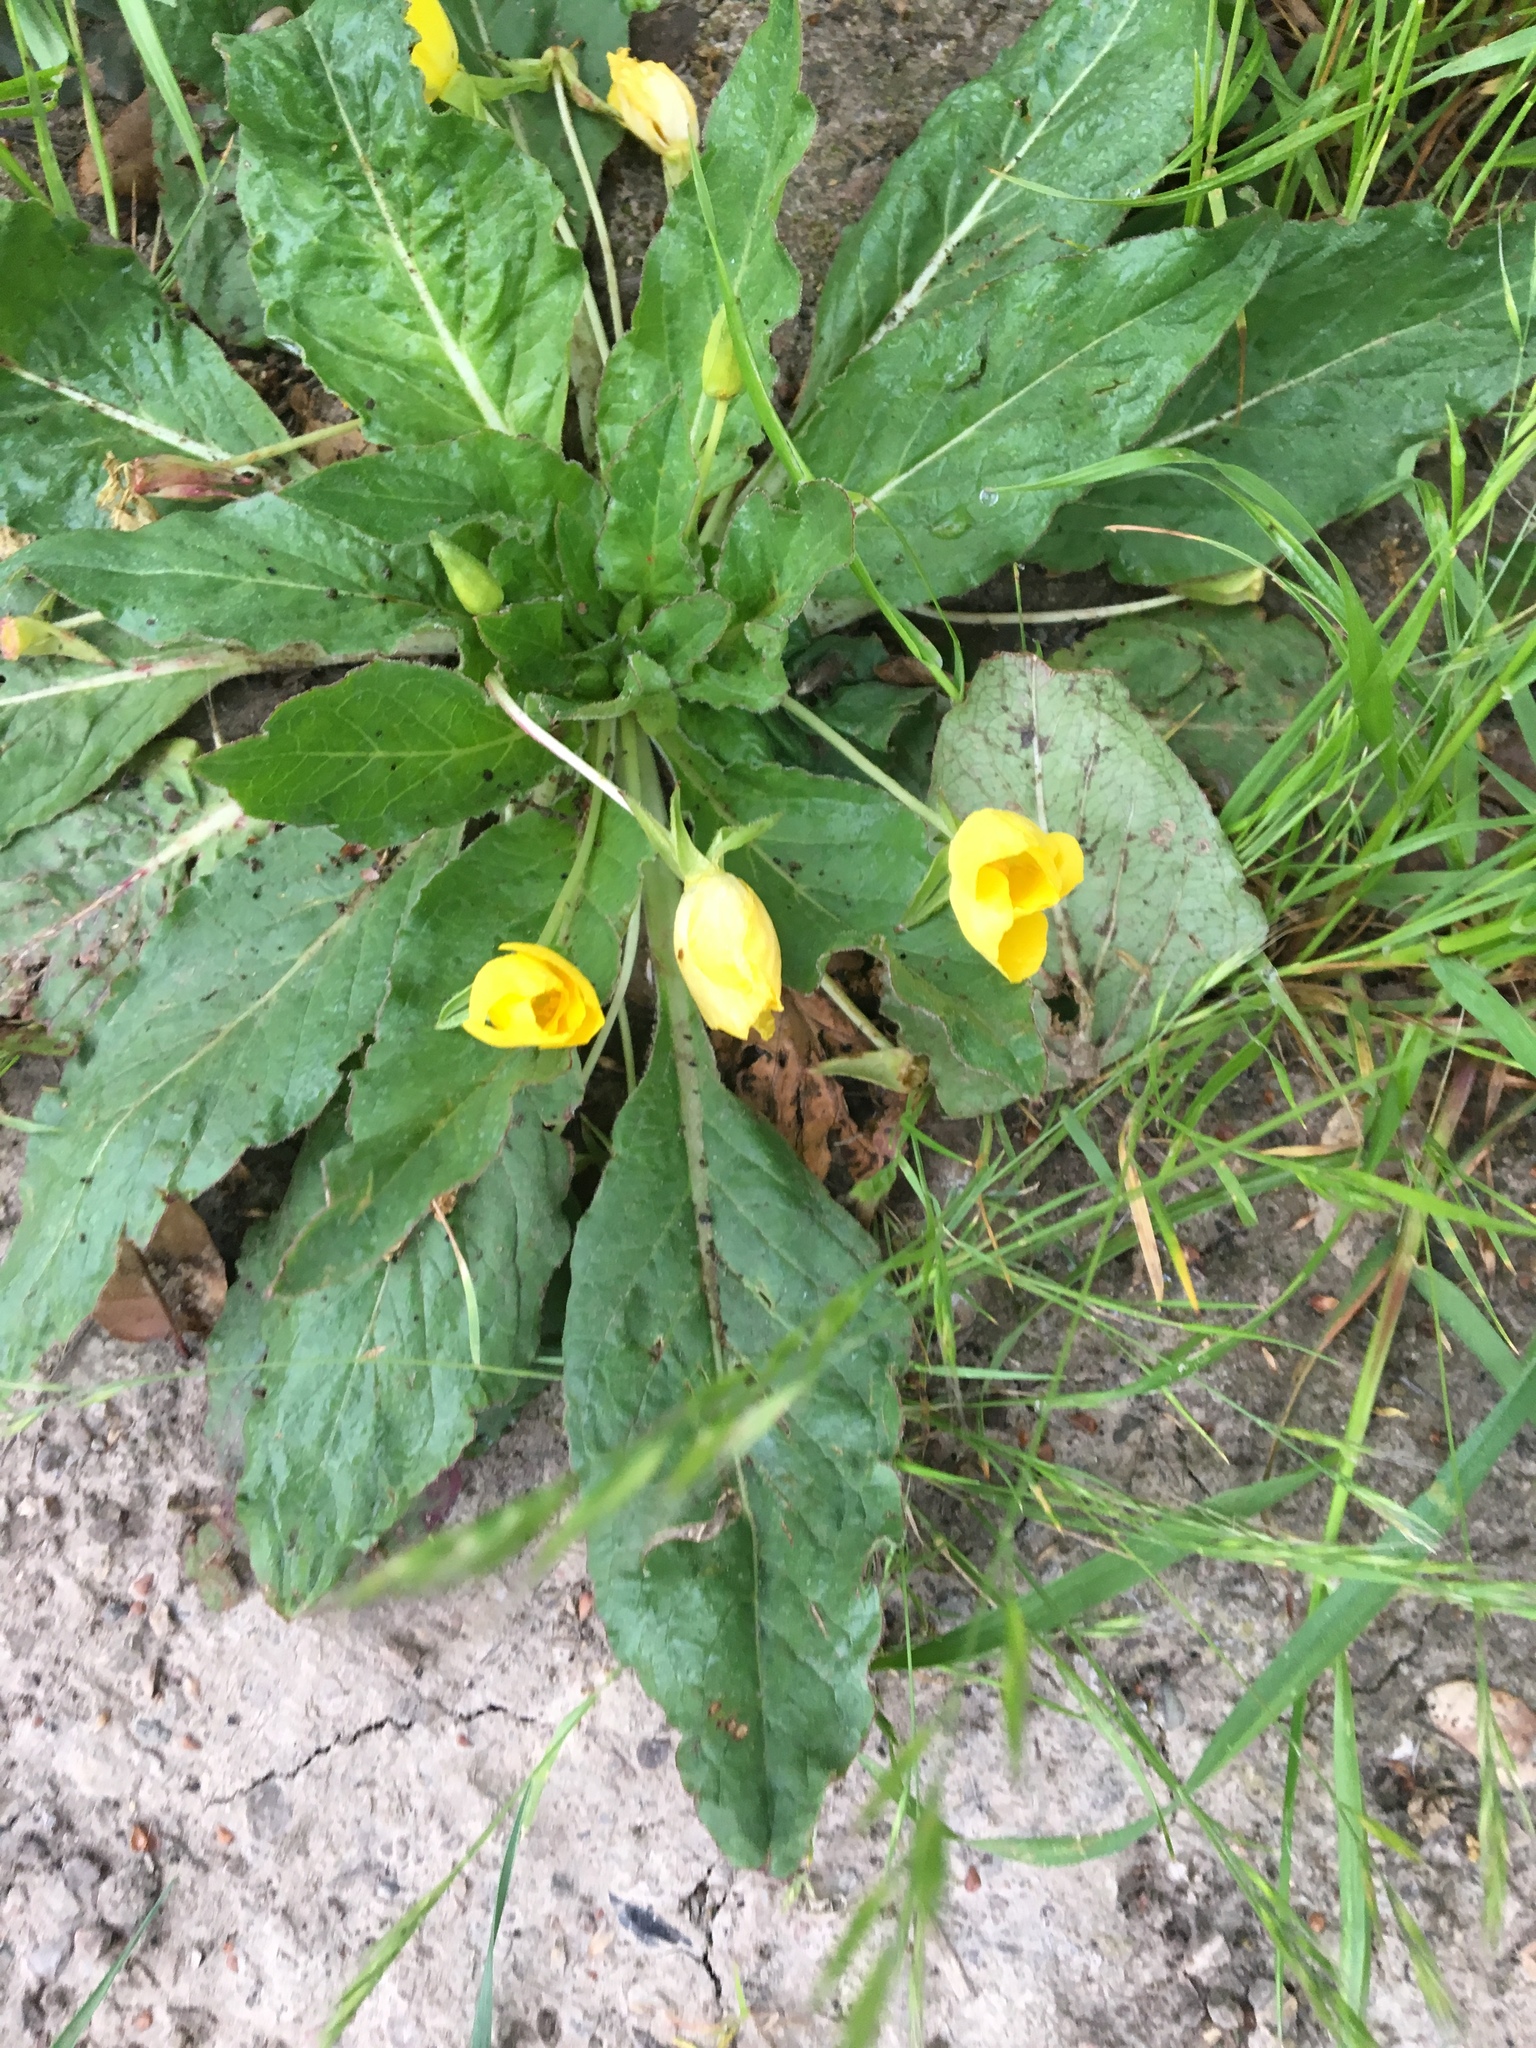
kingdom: Plantae
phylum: Tracheophyta
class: Magnoliopsida
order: Myrtales
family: Onagraceae
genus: Taraxia
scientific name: Taraxia ovata
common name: Goldeneggs
